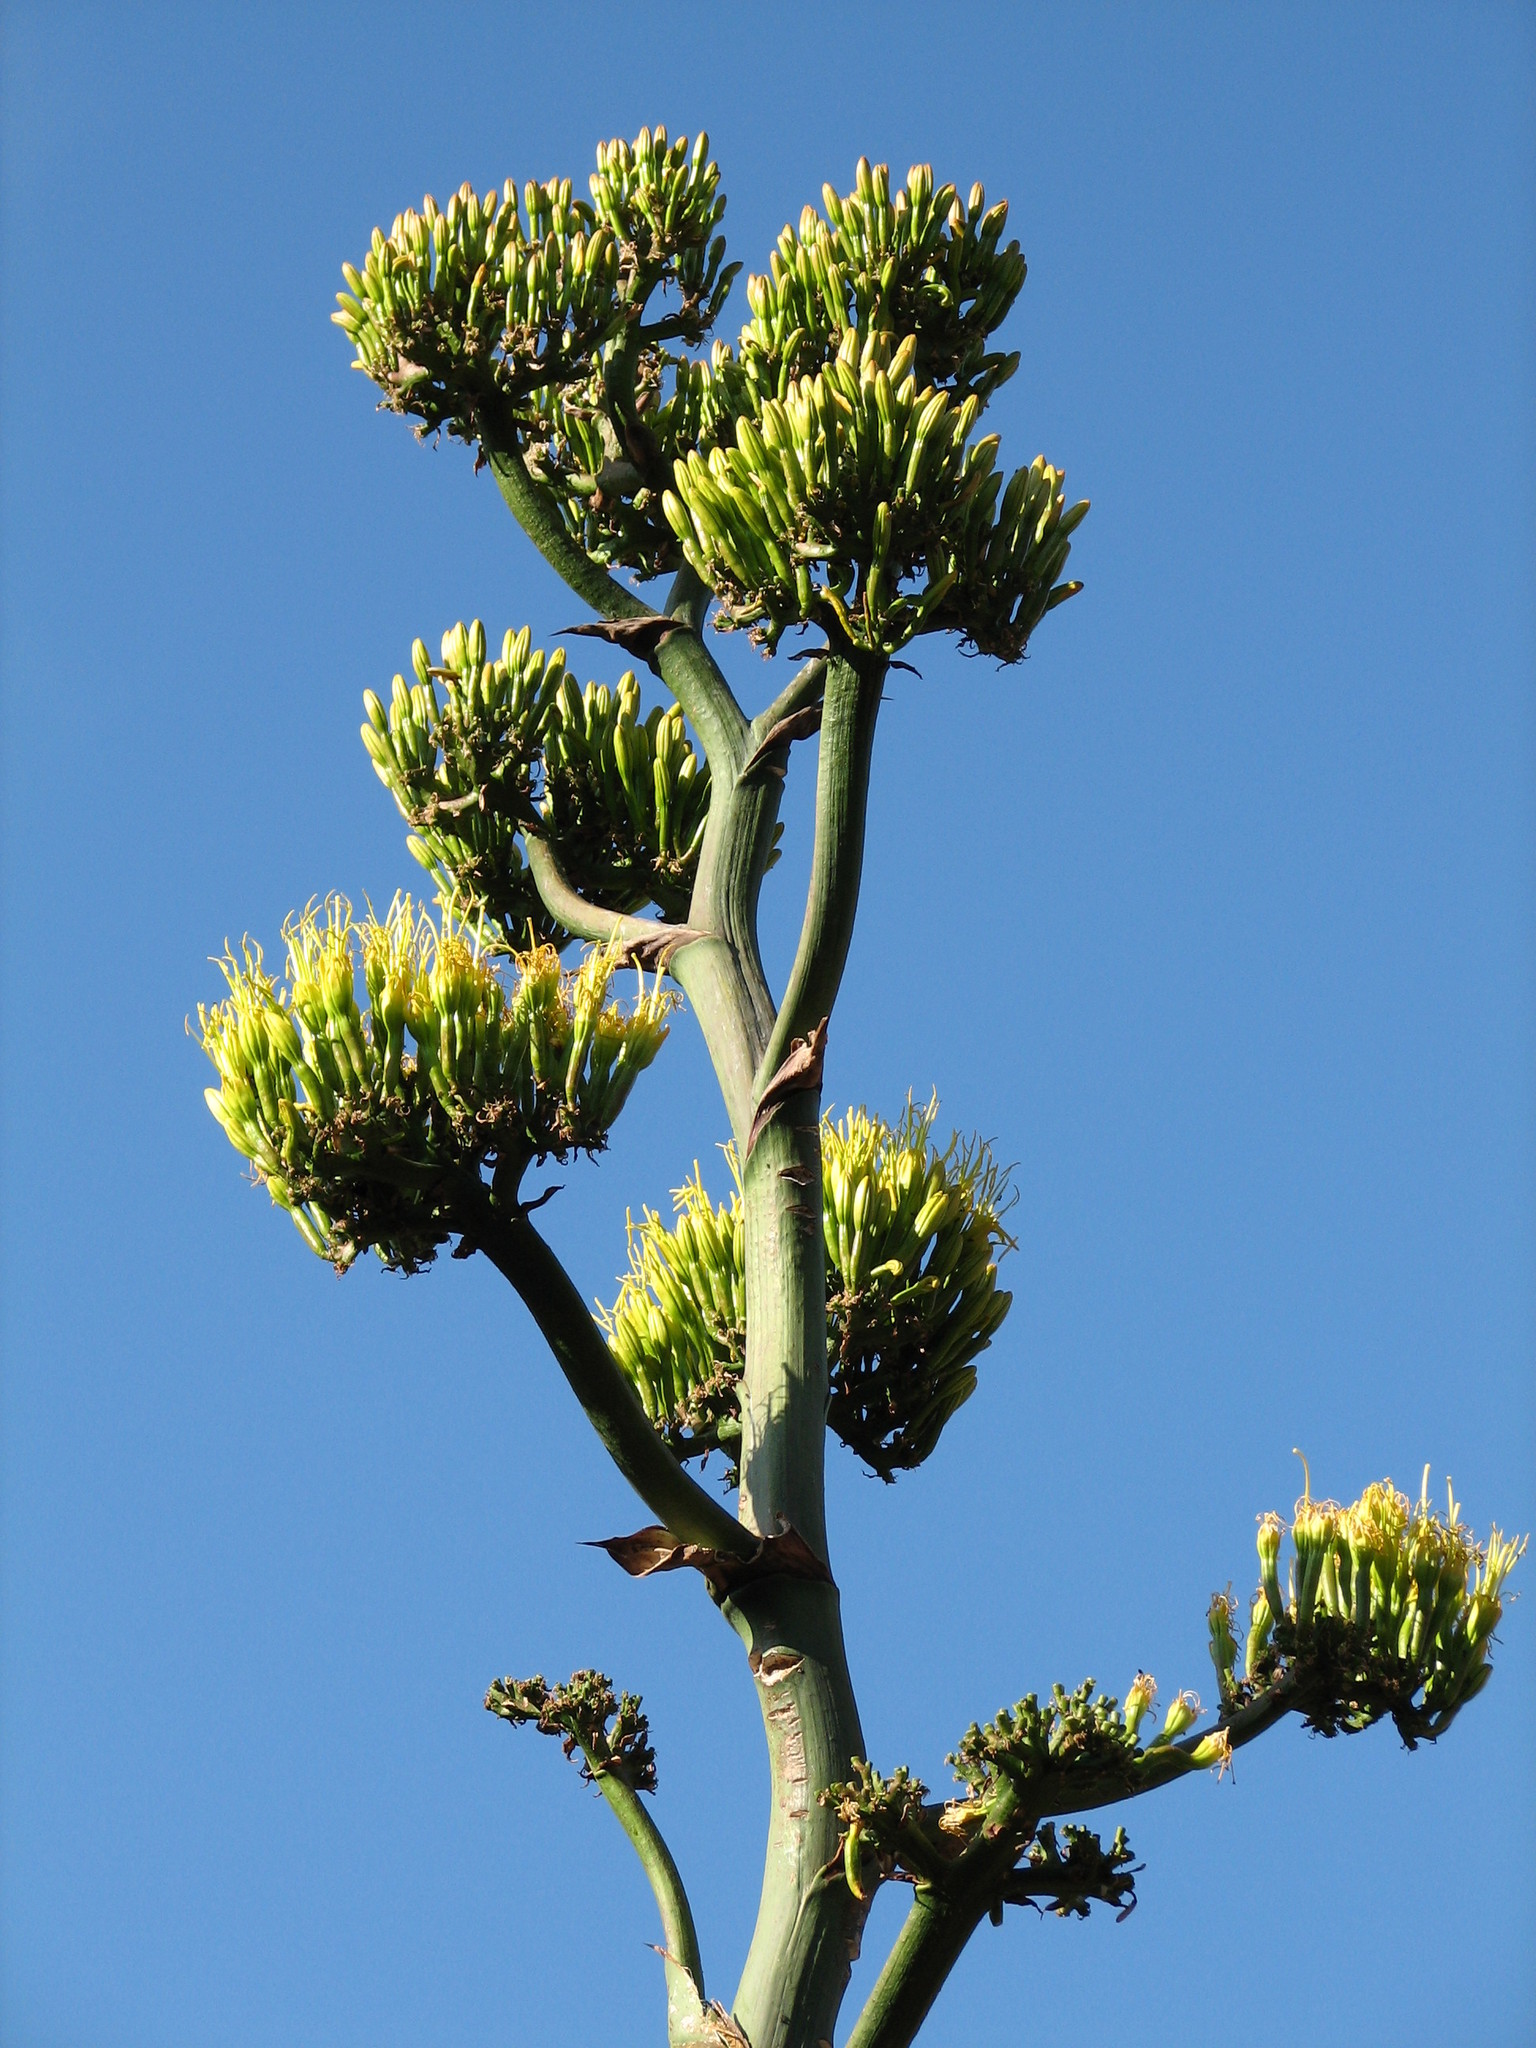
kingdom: Plantae
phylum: Tracheophyta
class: Liliopsida
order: Asparagales
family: Asparagaceae
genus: Agave
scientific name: Agave havardiana
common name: Havard agave
